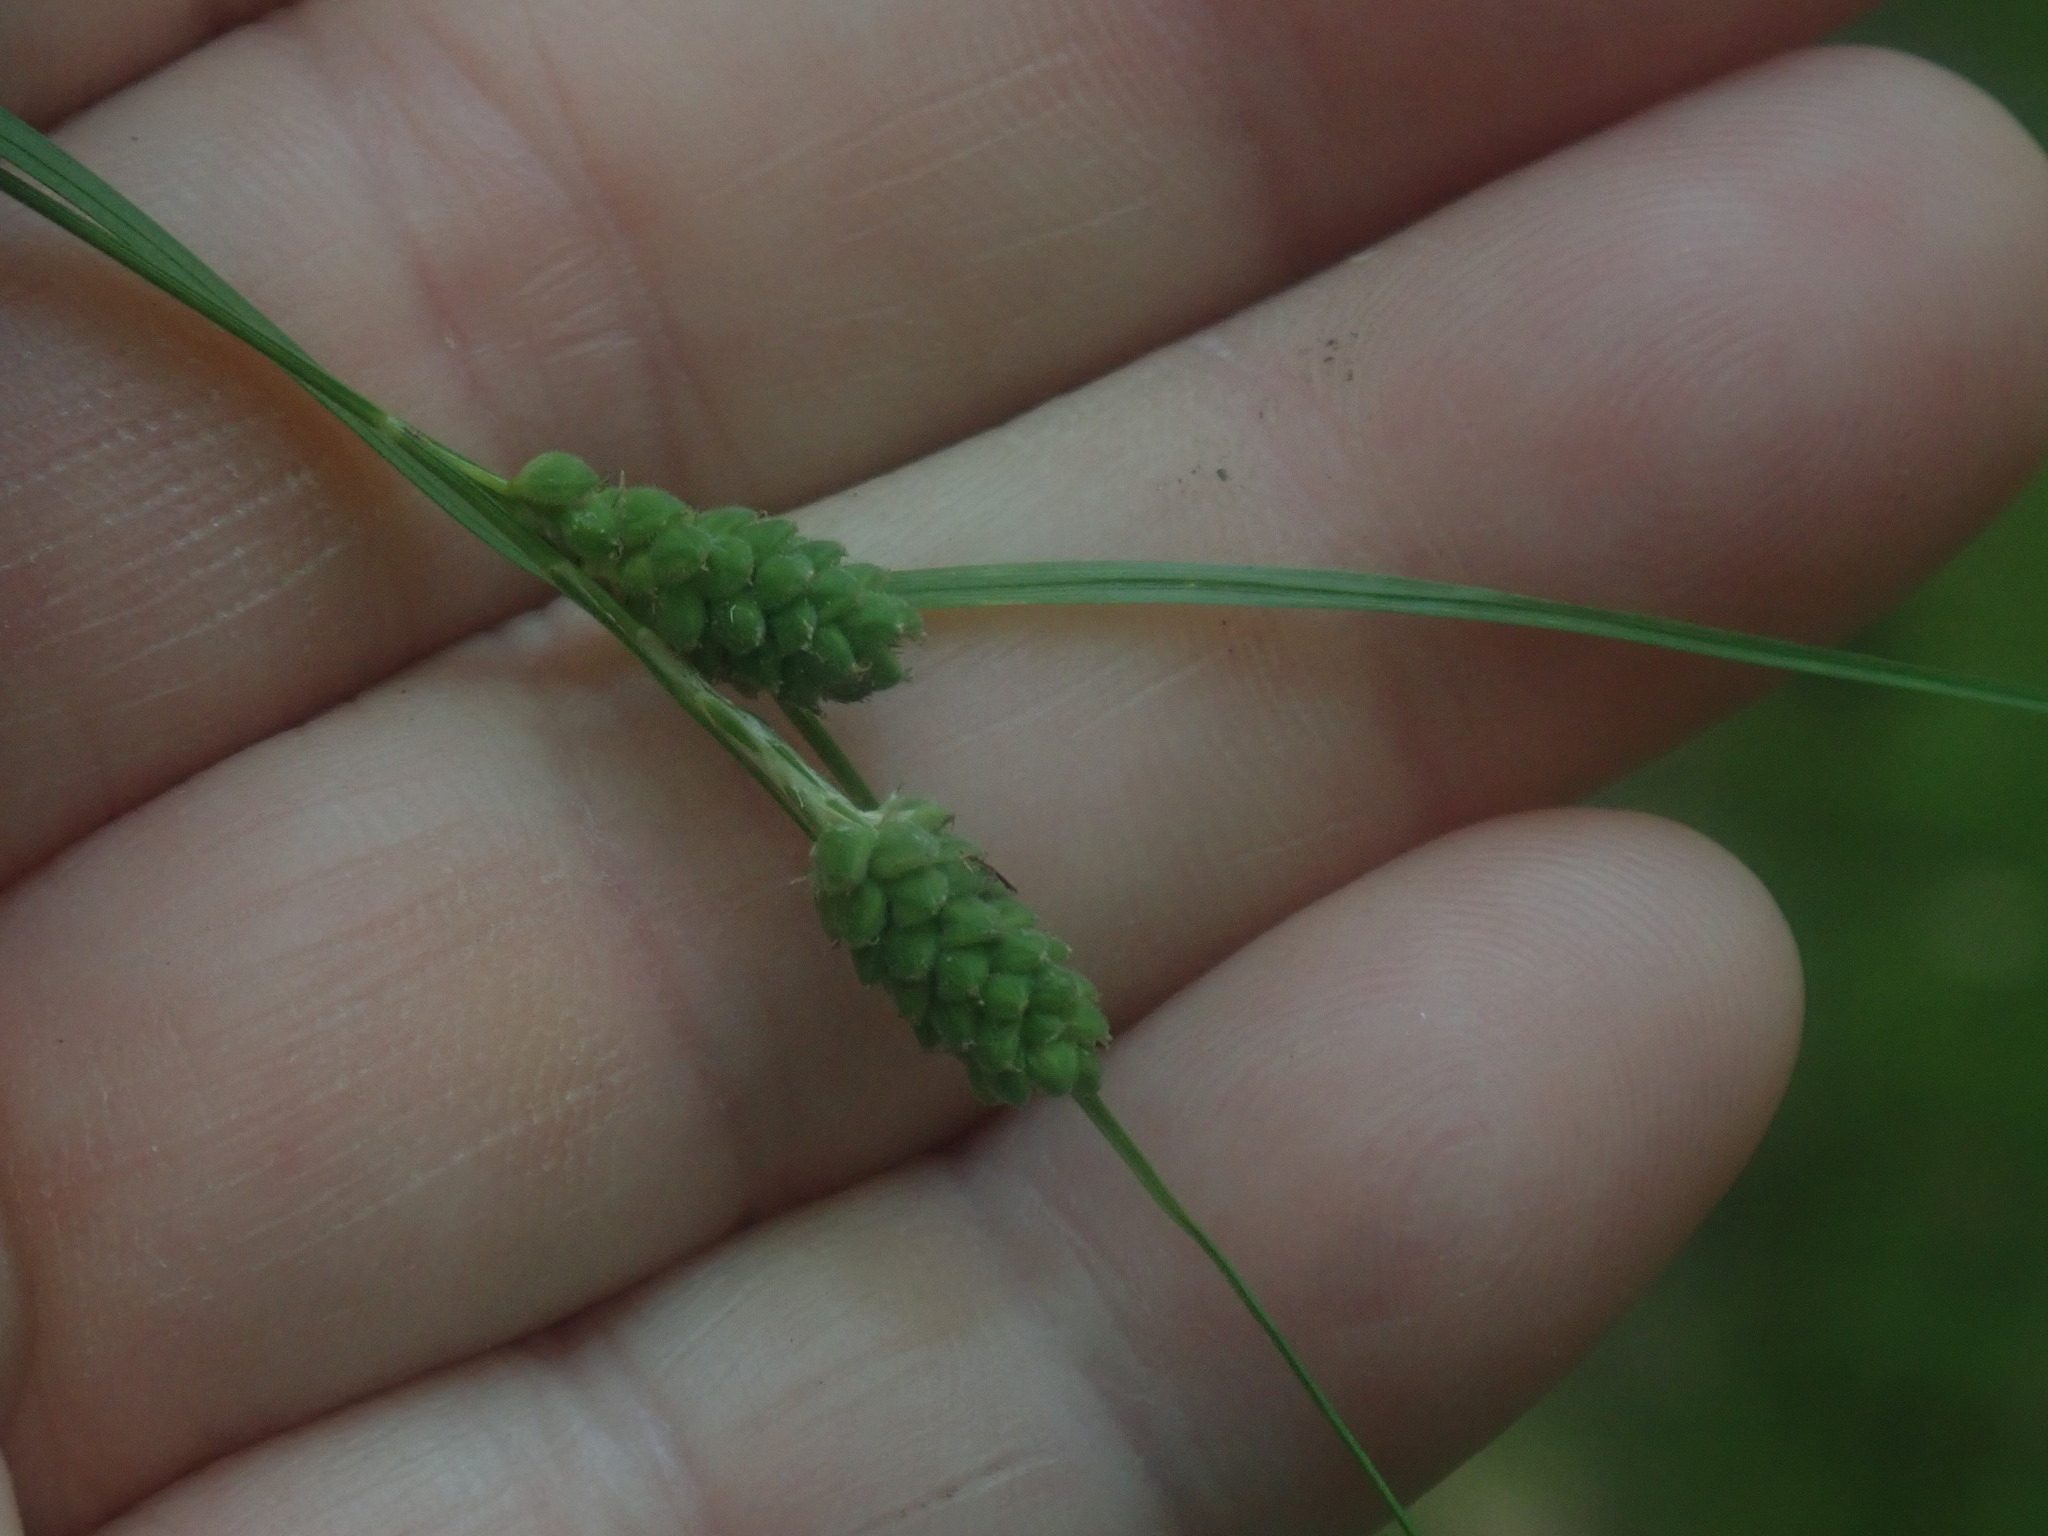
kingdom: Plantae
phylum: Tracheophyta
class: Liliopsida
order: Poales
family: Cyperaceae
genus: Carex
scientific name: Carex swanii
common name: Downy green sedge
